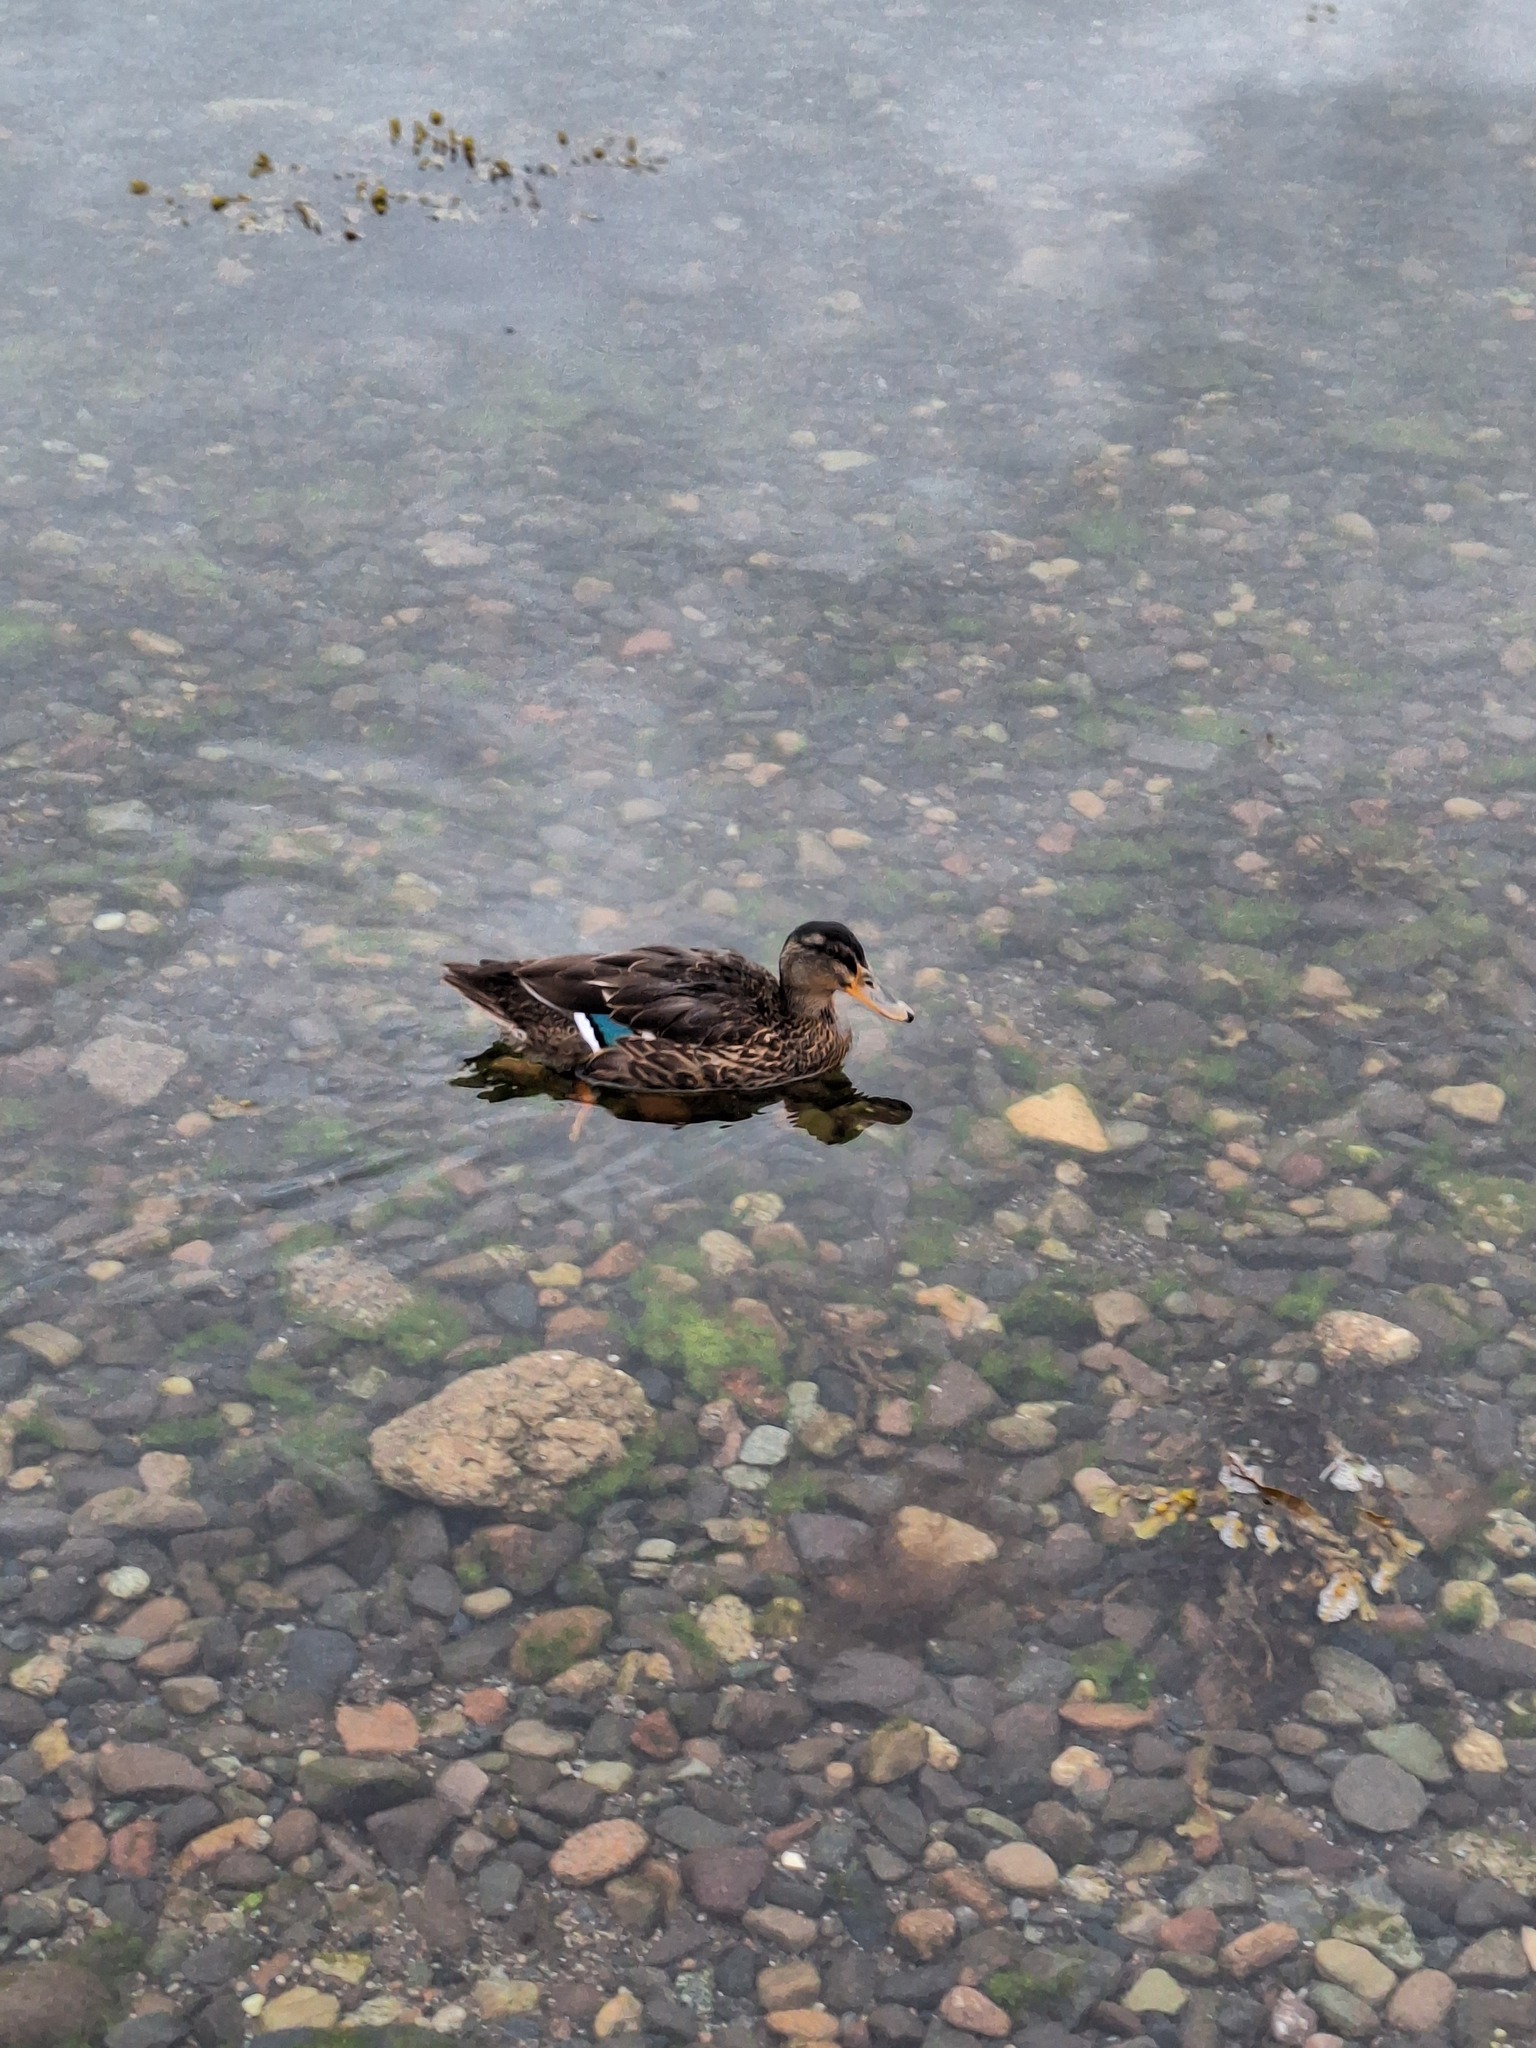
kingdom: Animalia
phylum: Chordata
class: Aves
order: Anseriformes
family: Anatidae
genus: Anas
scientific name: Anas platyrhynchos
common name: Mallard
